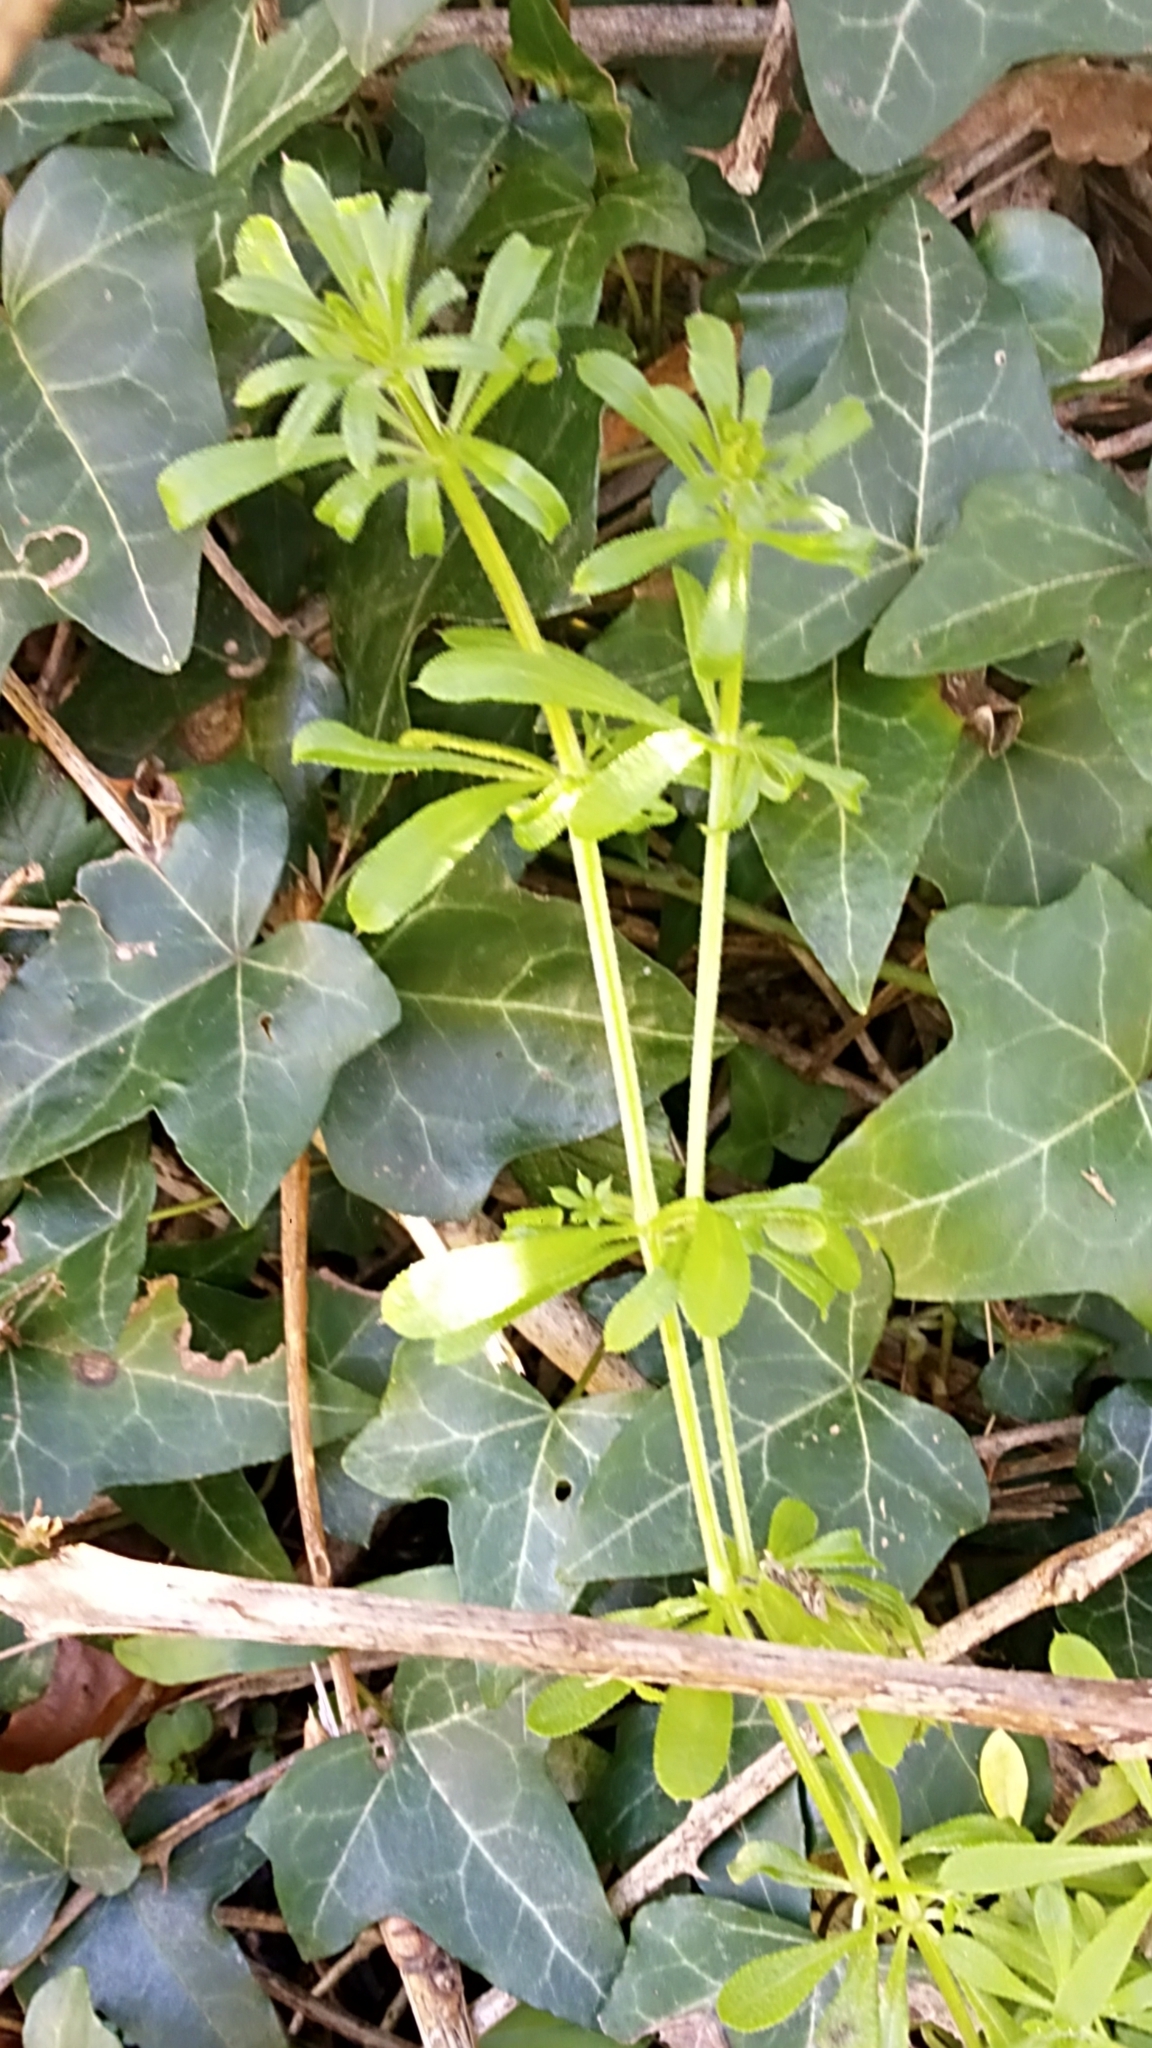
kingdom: Plantae
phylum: Tracheophyta
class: Magnoliopsida
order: Gentianales
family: Rubiaceae
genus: Galium
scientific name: Galium aparine
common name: Cleavers
